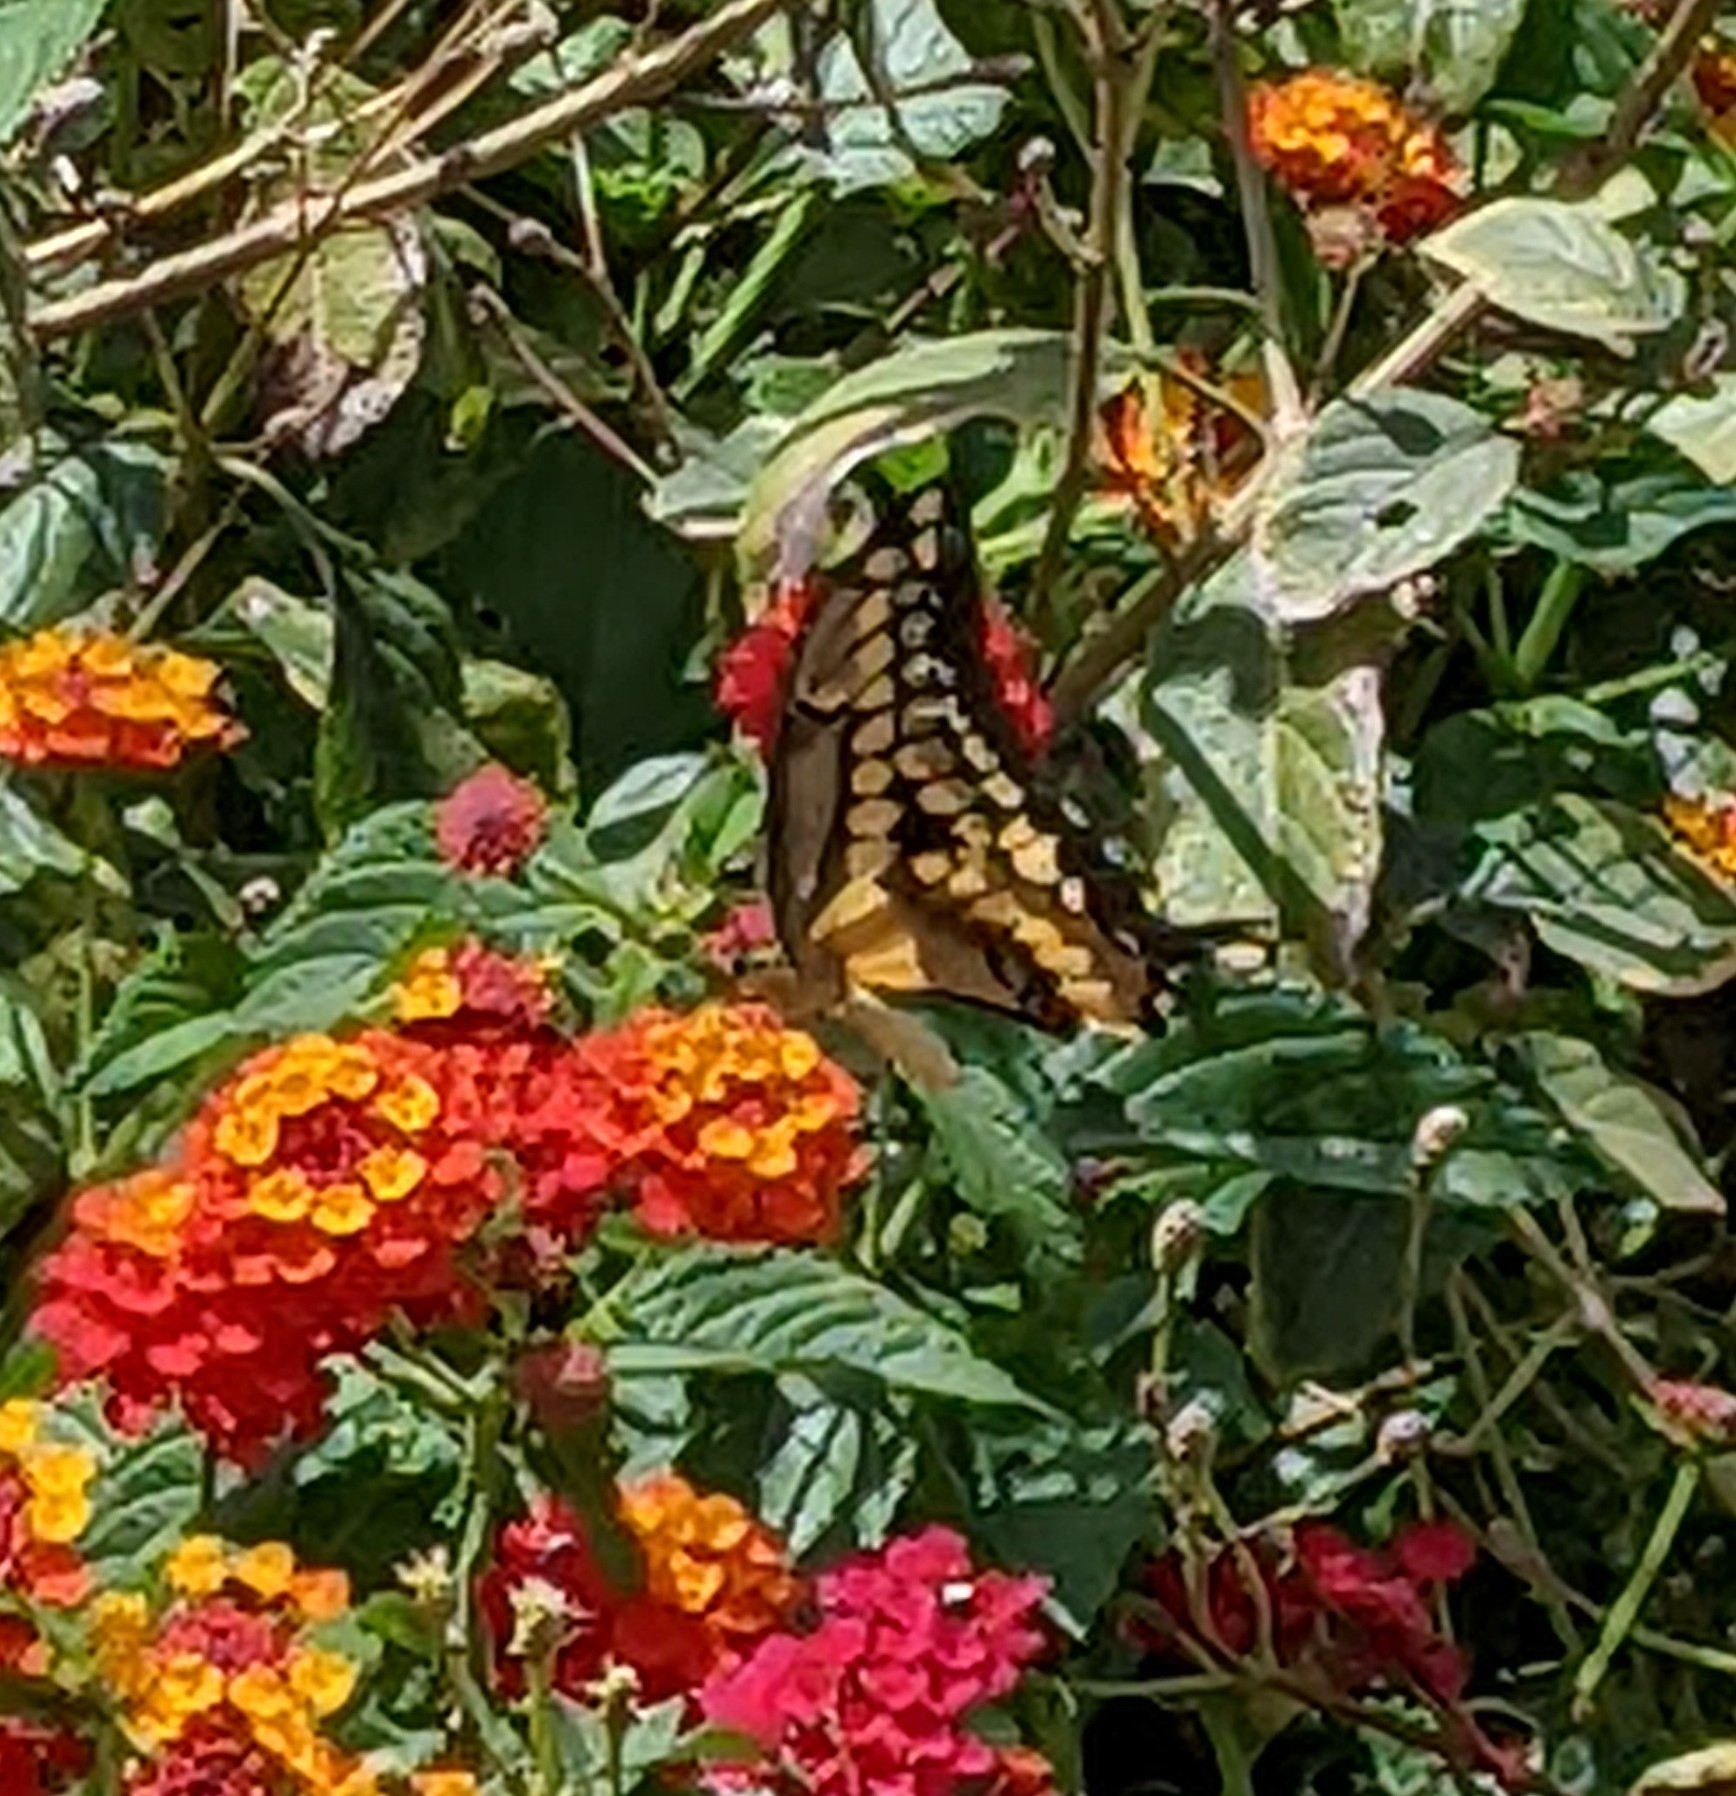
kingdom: Animalia
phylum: Arthropoda
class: Insecta
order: Lepidoptera
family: Papilionidae
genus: Papilio
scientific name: Papilio rumiko
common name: Western giant swallowtail
